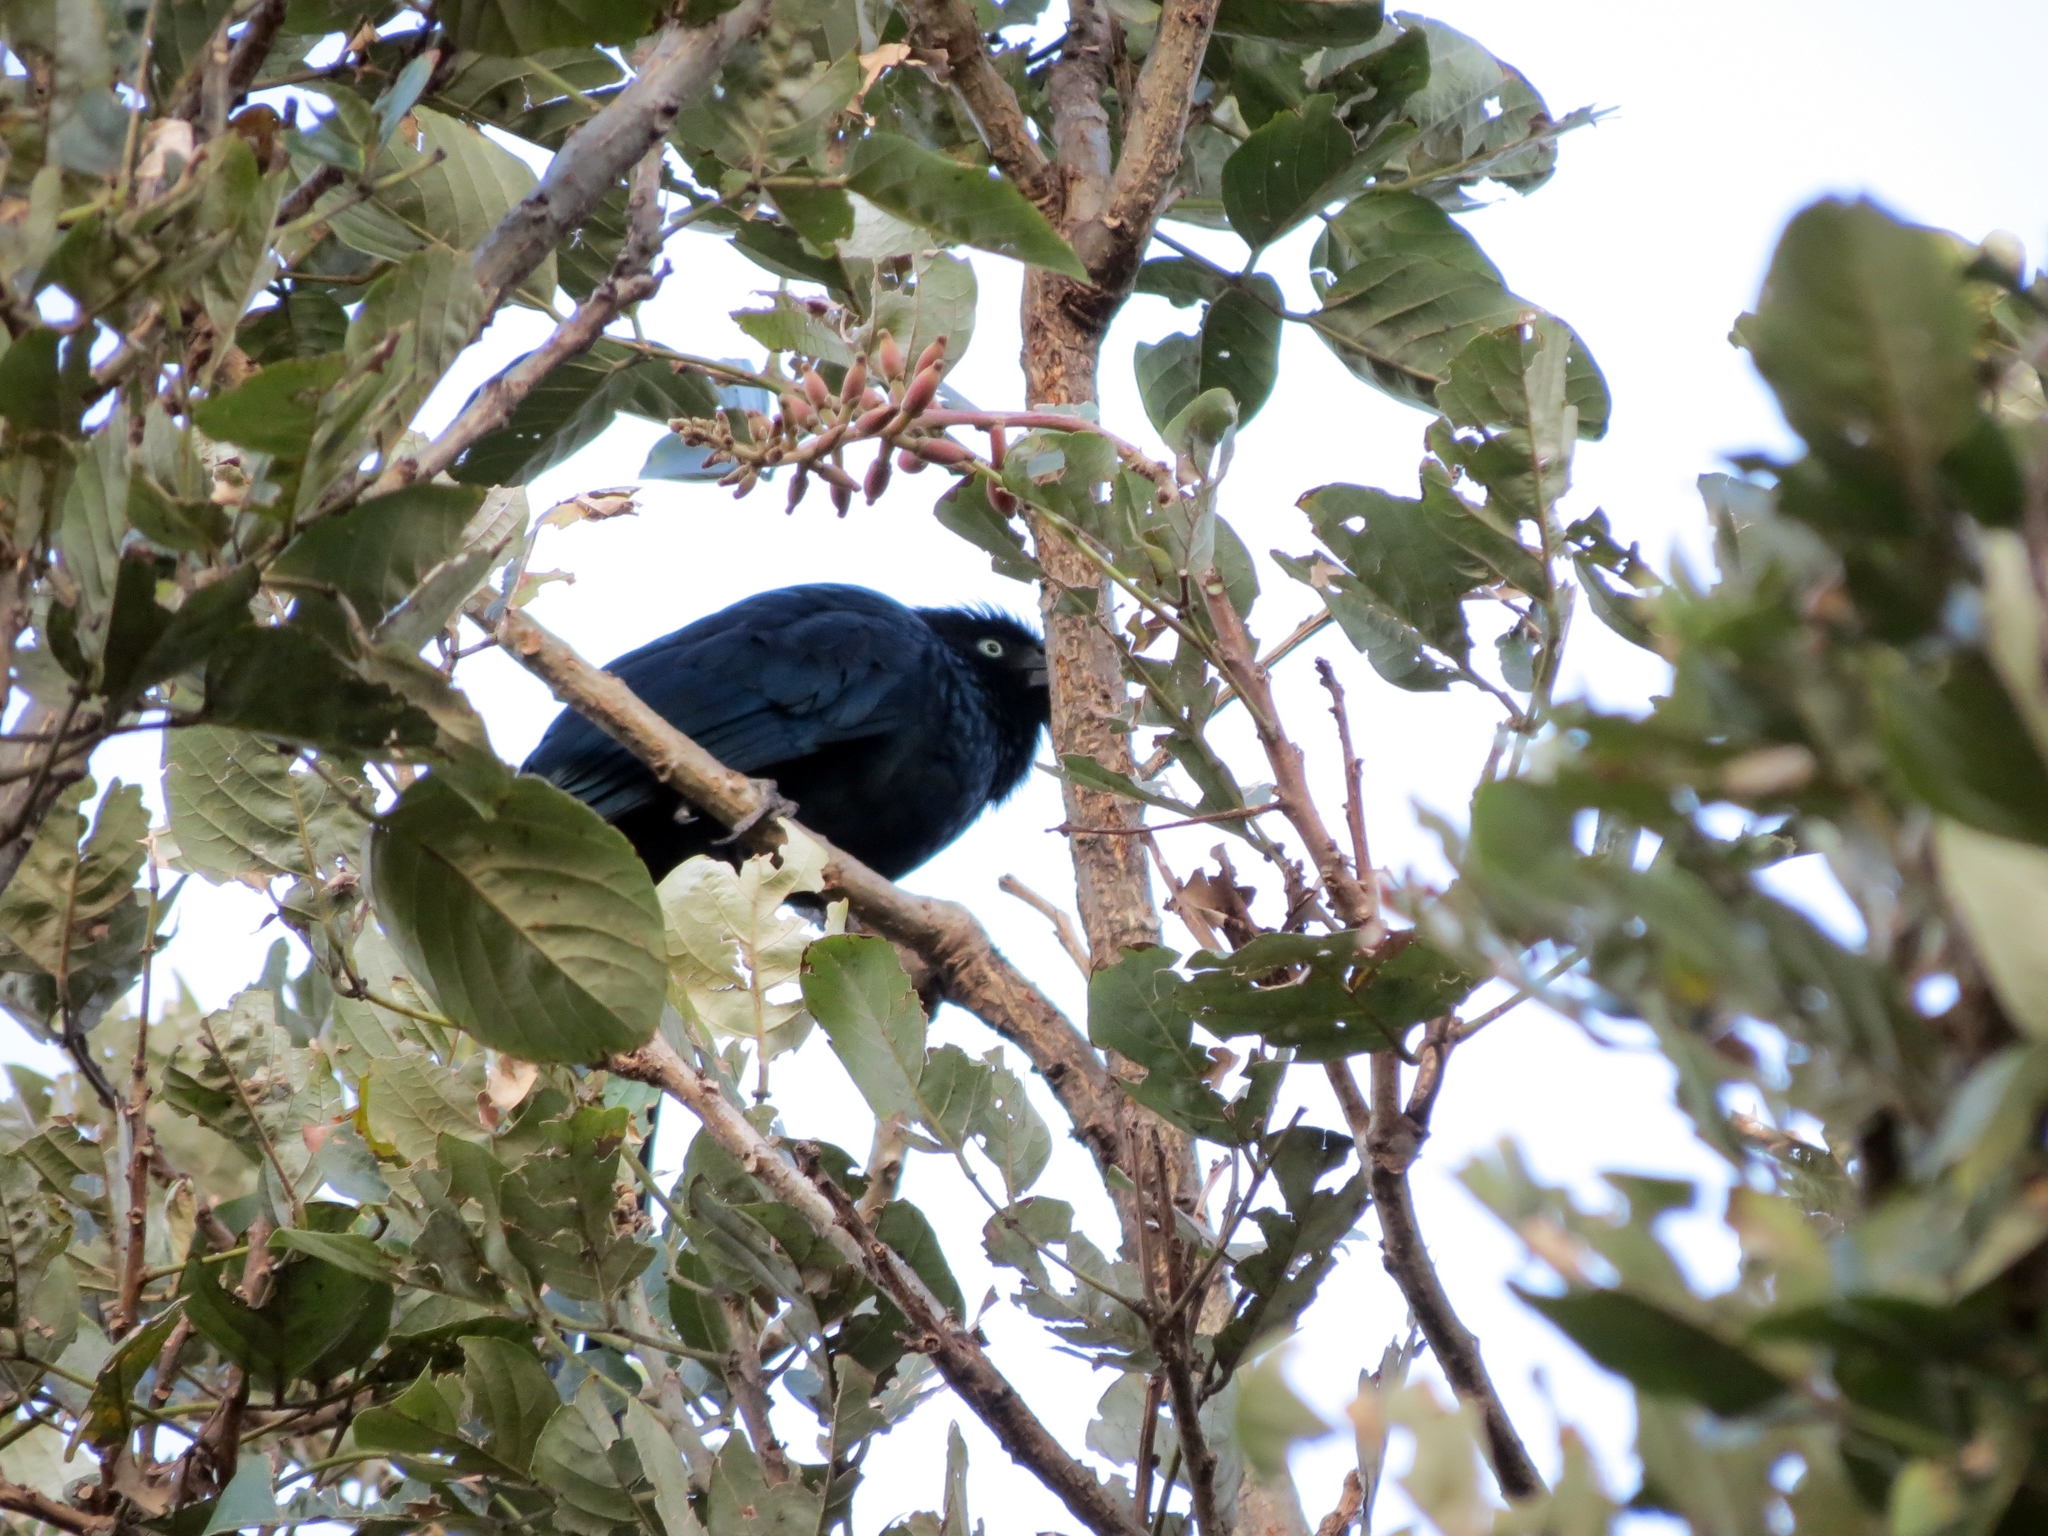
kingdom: Animalia
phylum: Chordata
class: Aves
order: Cuculiformes
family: Cuculidae
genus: Crotophaga
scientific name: Crotophaga major
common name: Greater ani
